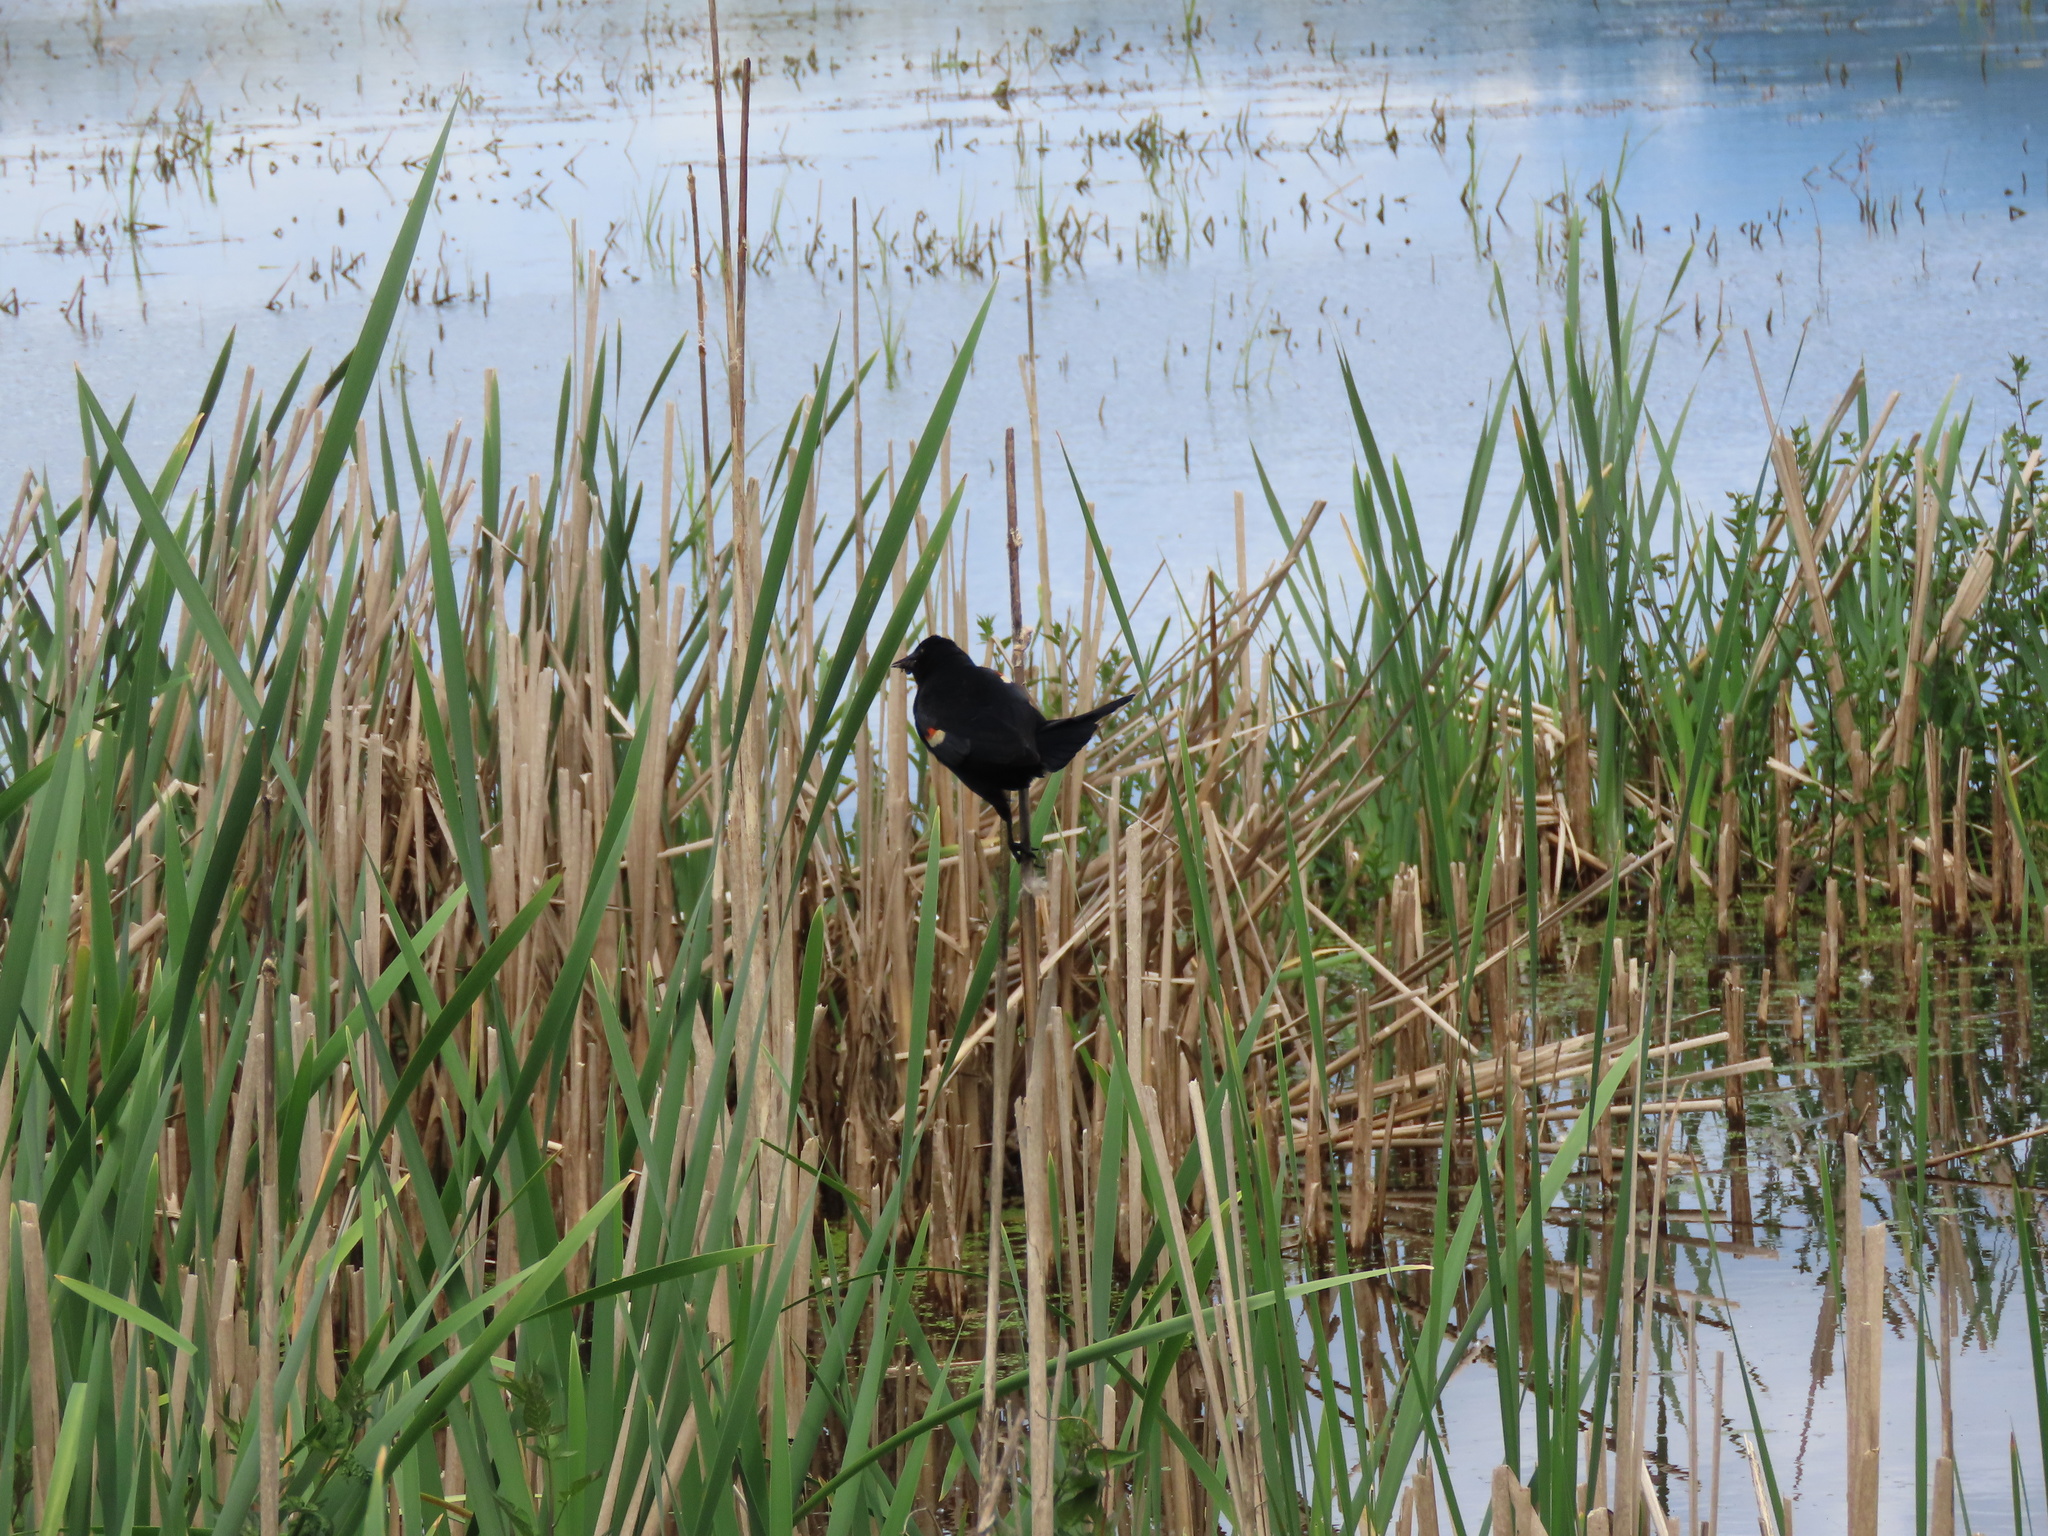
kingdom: Animalia
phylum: Chordata
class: Aves
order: Passeriformes
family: Icteridae
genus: Agelaius
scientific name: Agelaius phoeniceus
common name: Red-winged blackbird
